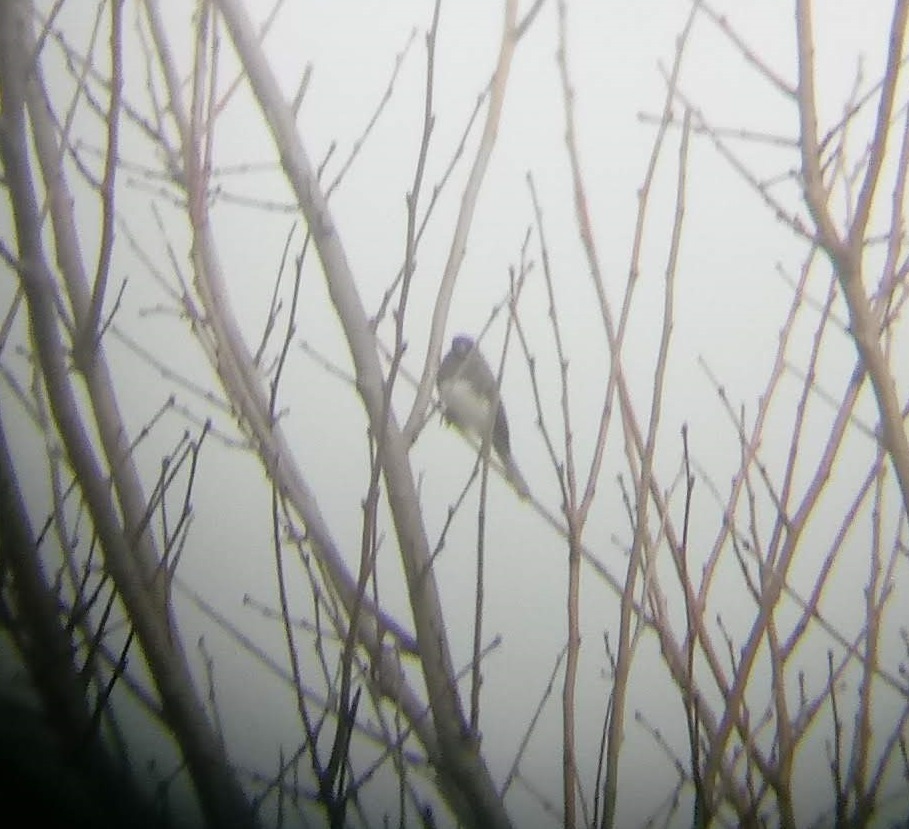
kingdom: Animalia
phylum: Chordata
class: Aves
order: Passeriformes
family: Passerellidae
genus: Junco
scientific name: Junco hyemalis
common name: Dark-eyed junco
